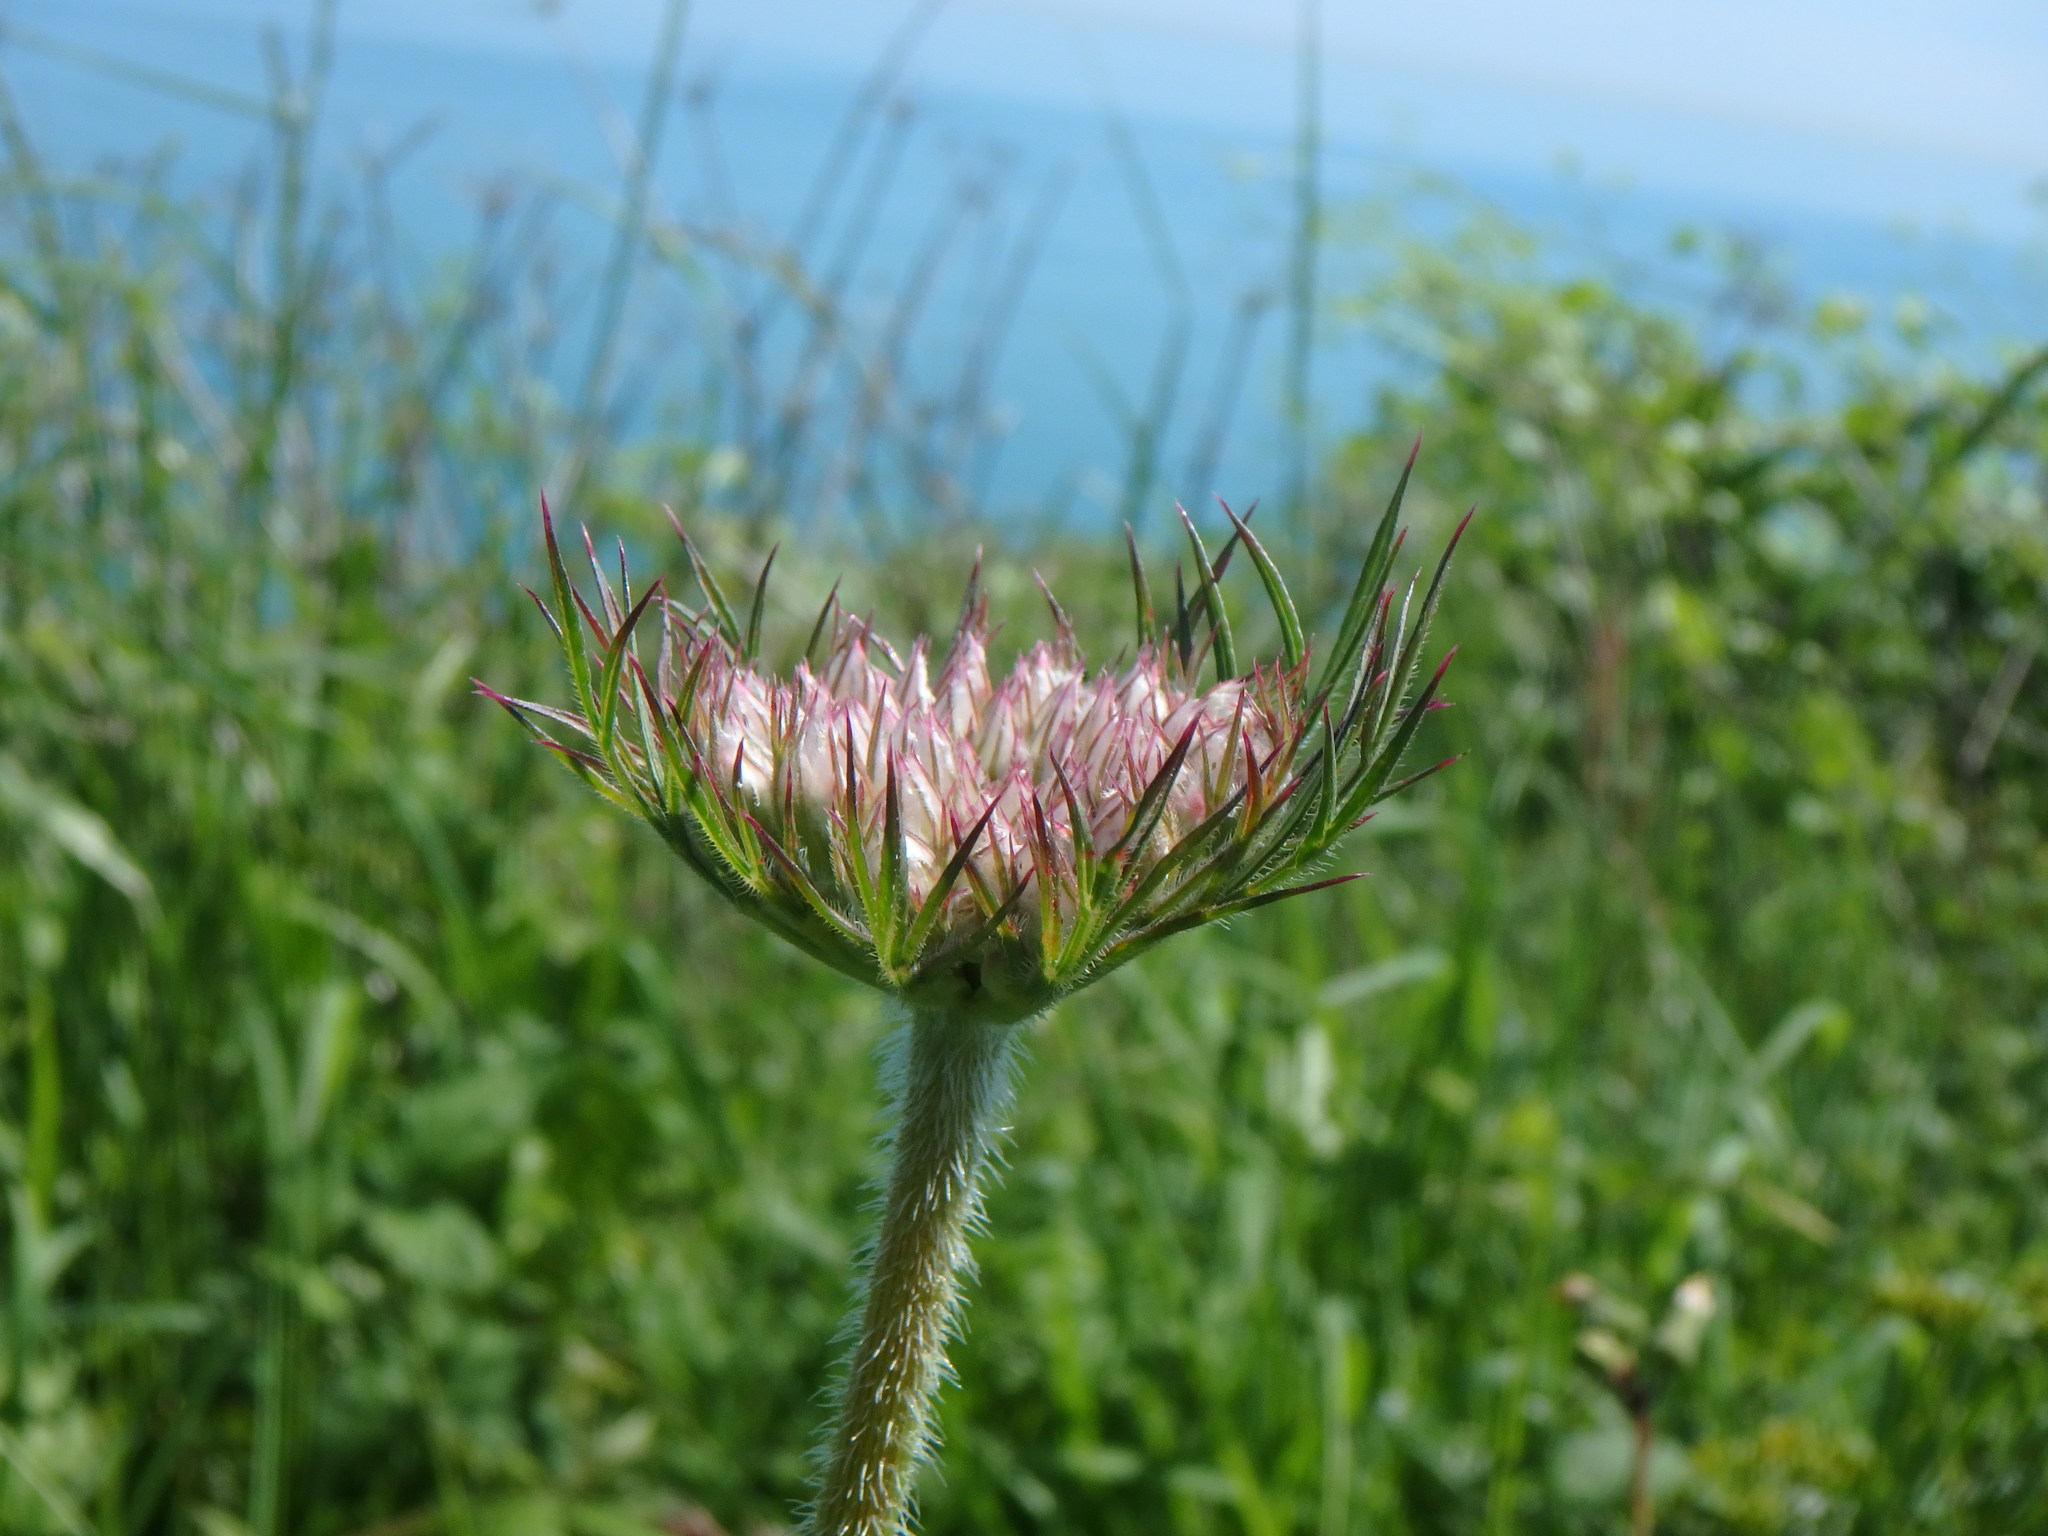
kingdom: Plantae
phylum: Tracheophyta
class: Magnoliopsida
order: Apiales
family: Apiaceae
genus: Daucus
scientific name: Daucus carota
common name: Wild carrot
